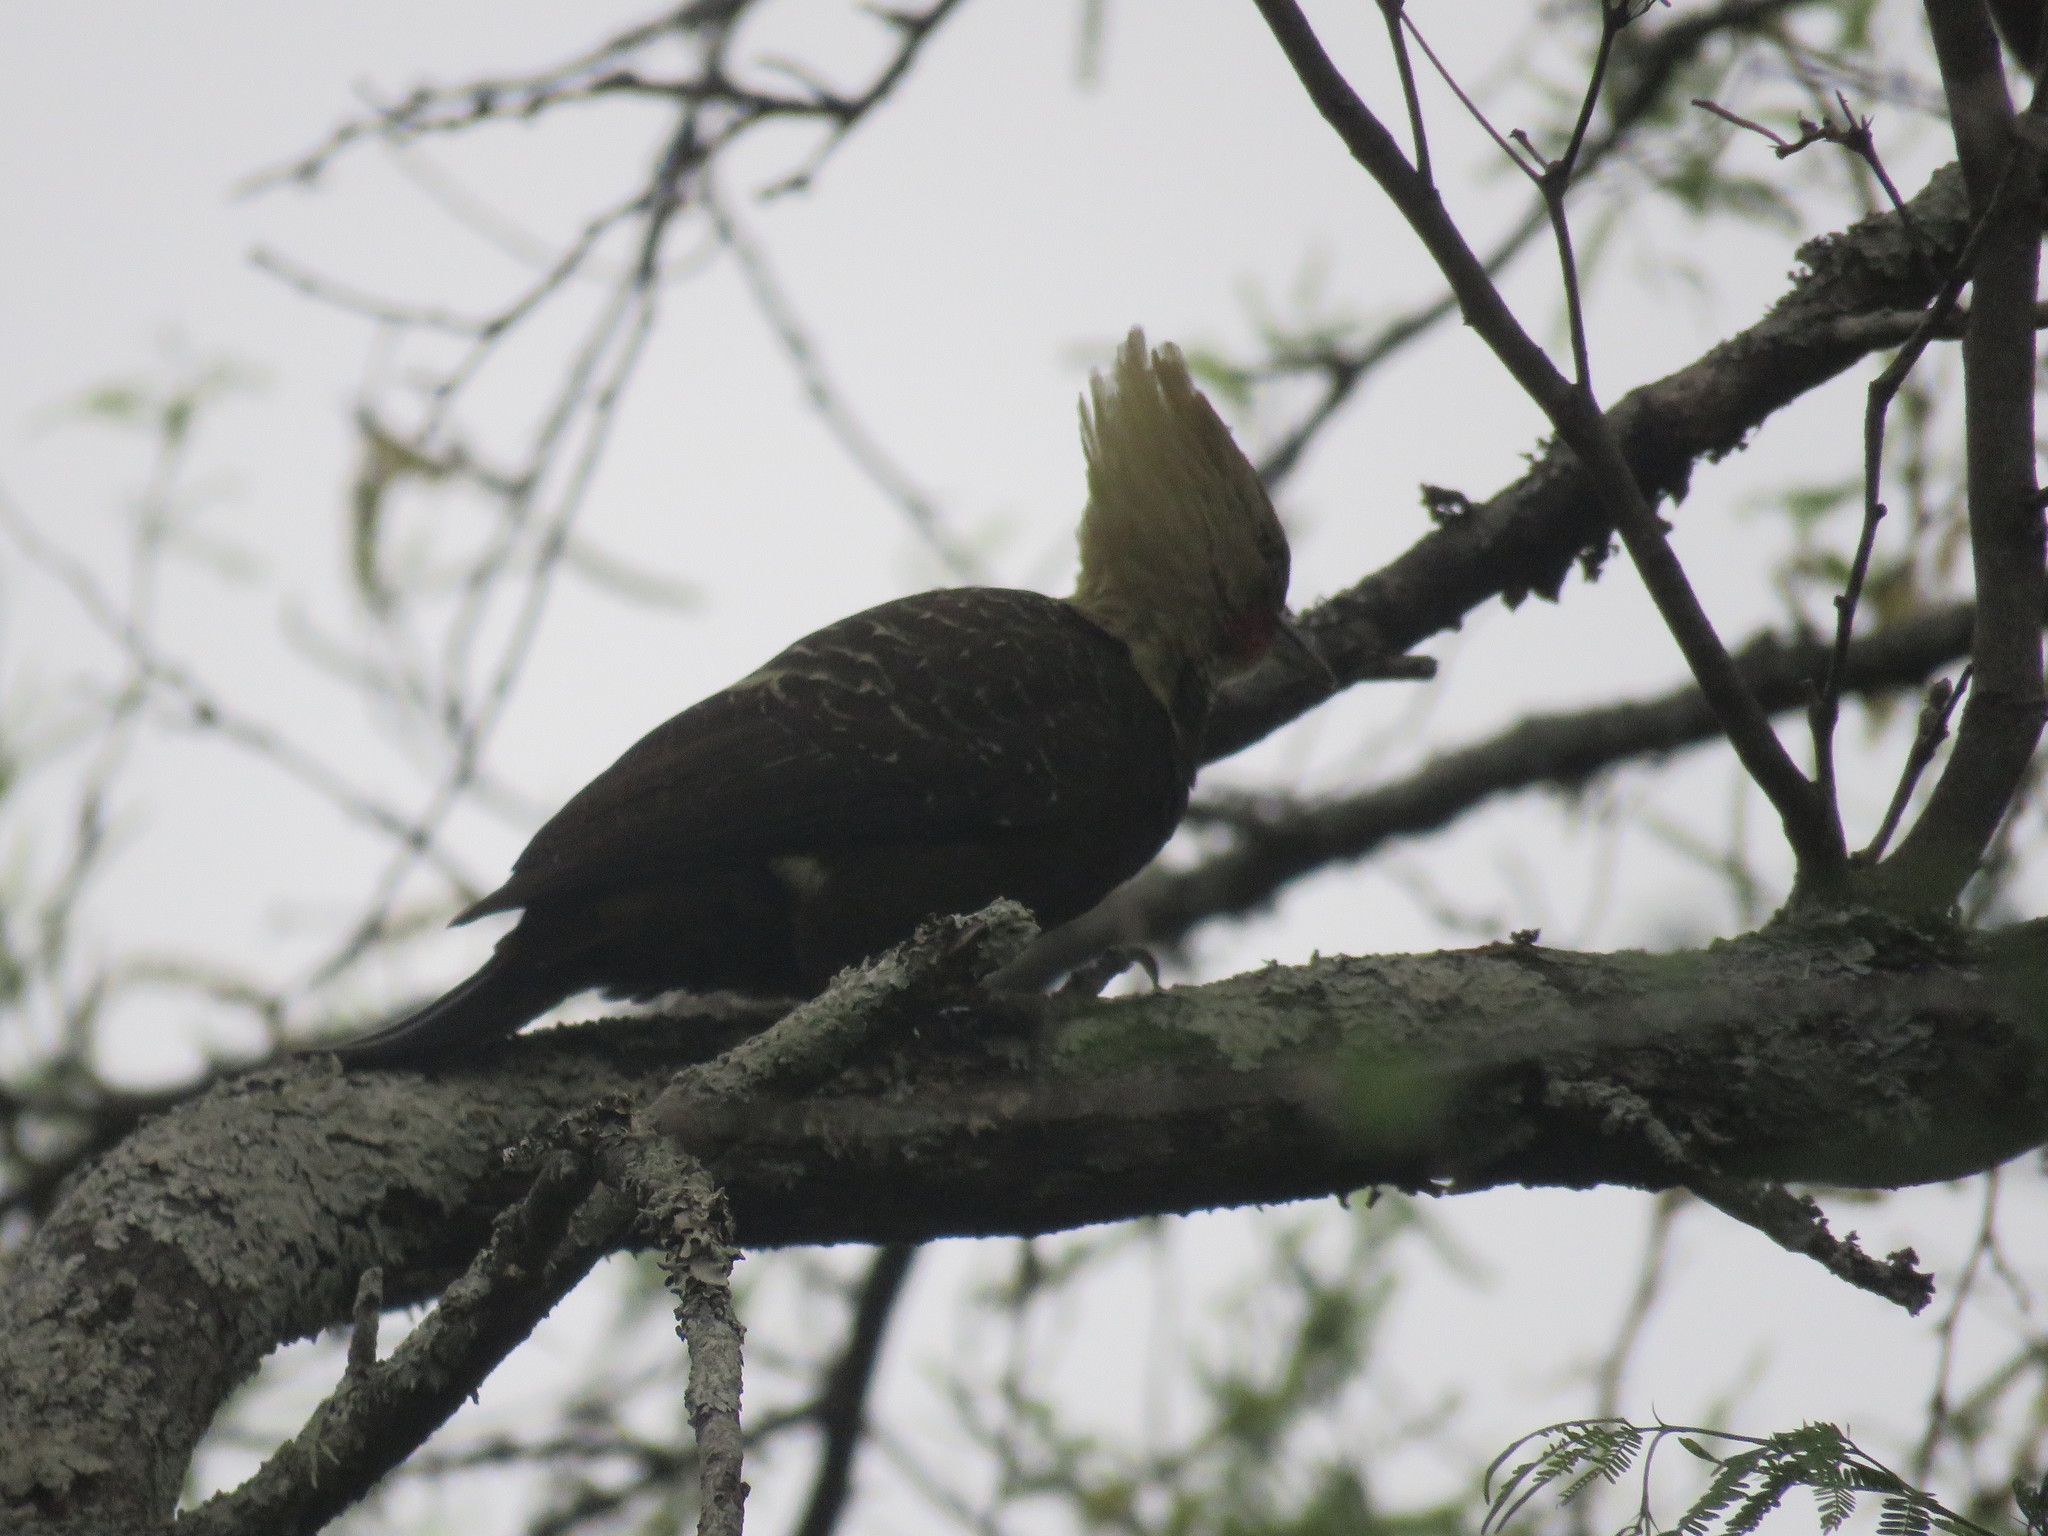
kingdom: Animalia
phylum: Chordata
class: Aves
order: Piciformes
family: Picidae
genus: Celeus
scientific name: Celeus lugubris
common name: Pale-crested woodpecker
